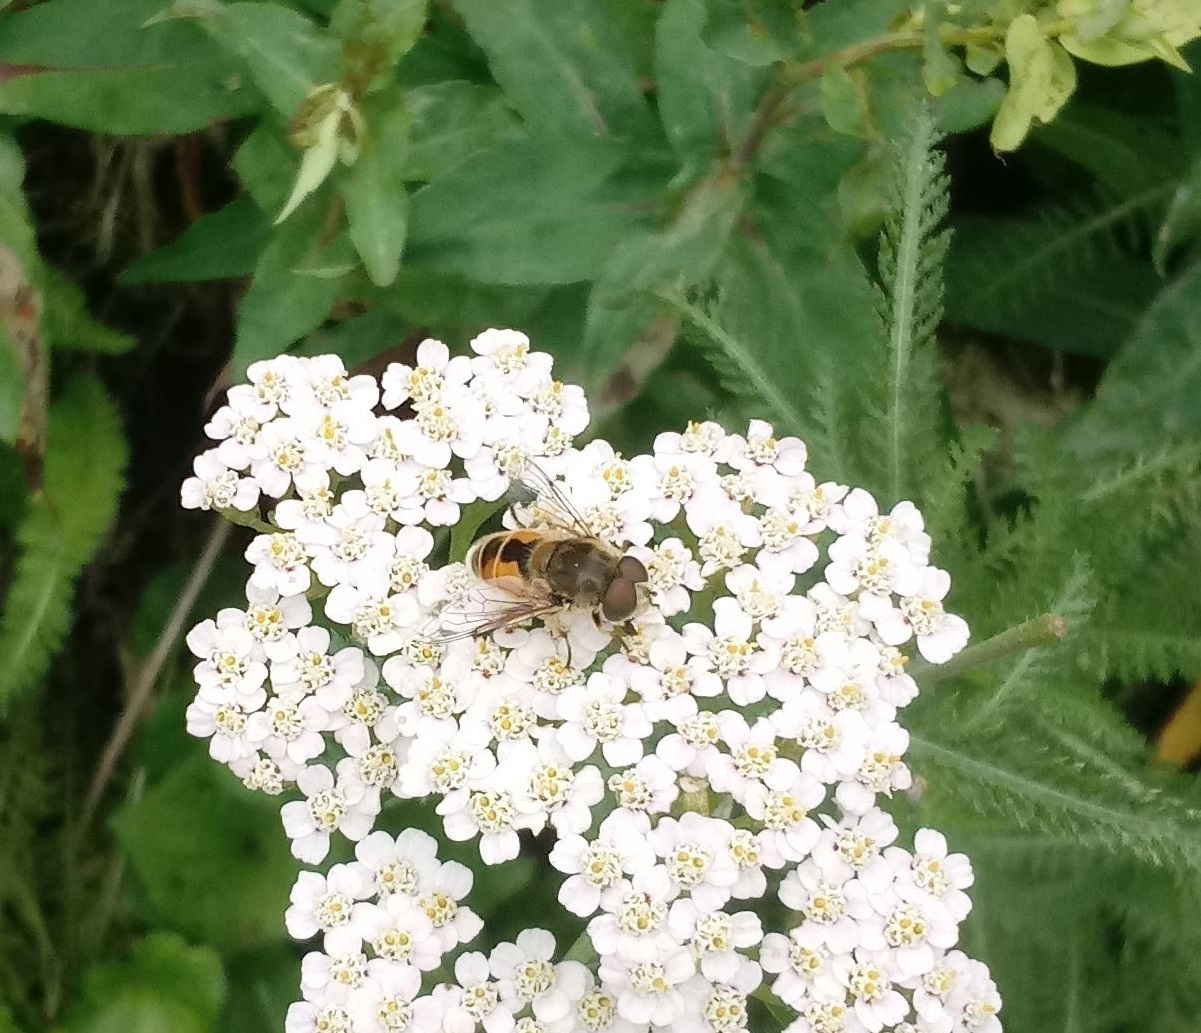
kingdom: Animalia
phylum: Arthropoda
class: Insecta
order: Diptera
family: Syrphidae
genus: Eristalis
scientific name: Eristalis arbustorum
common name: Hover fly
